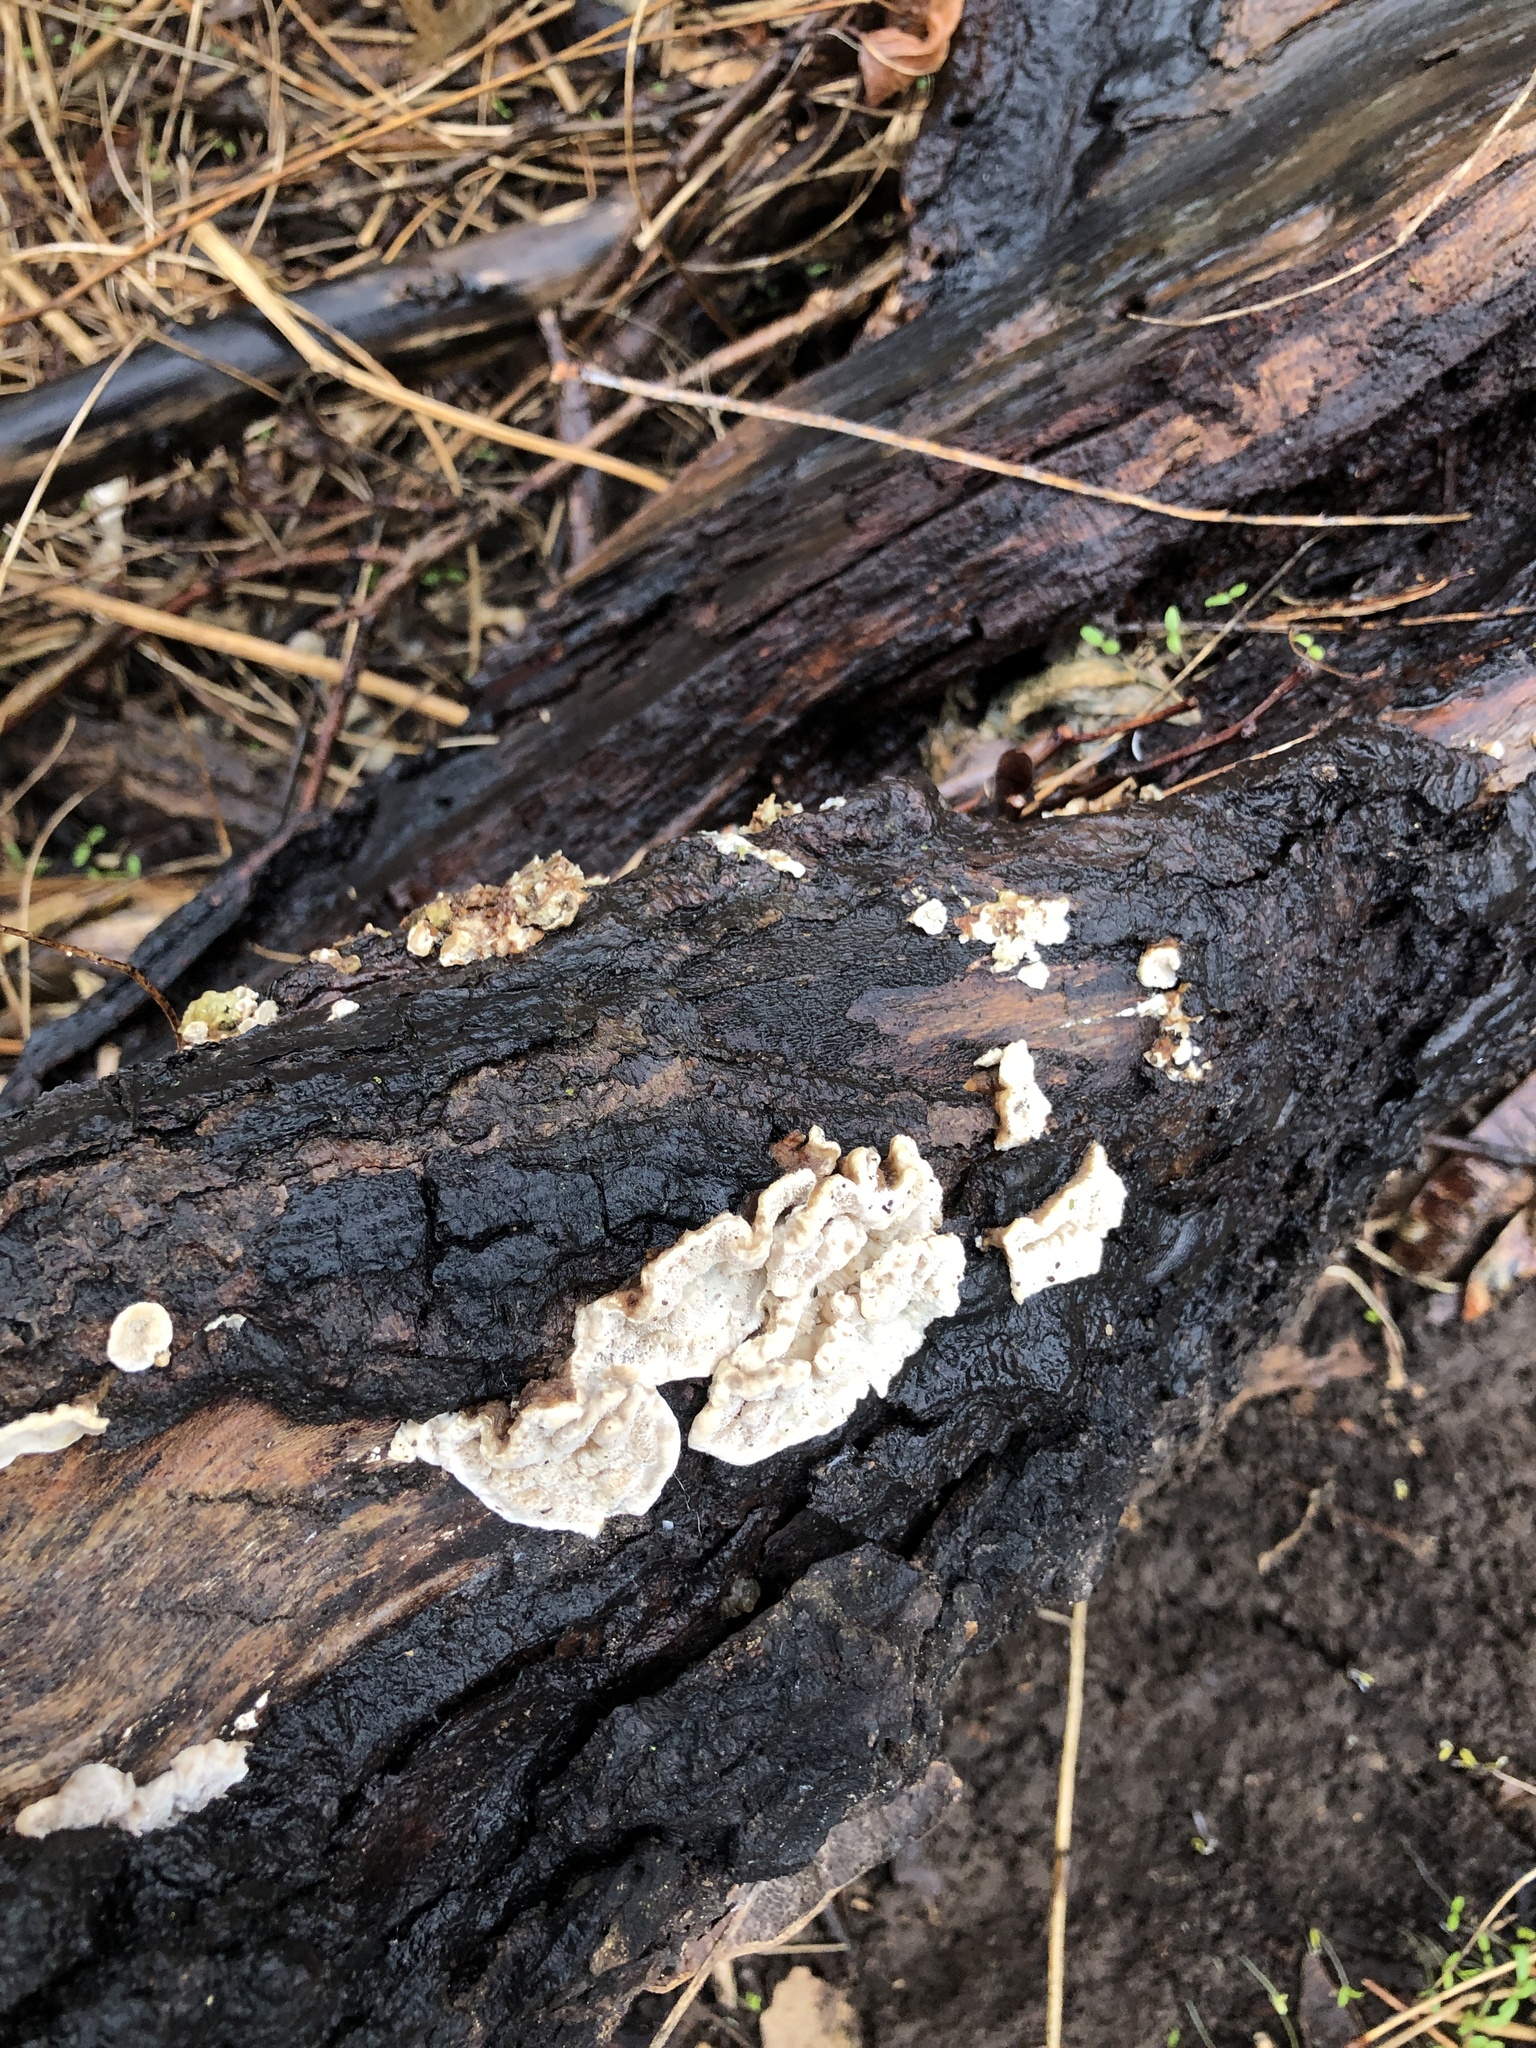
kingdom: Fungi
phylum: Basidiomycota
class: Agaricomycetes
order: Polyporales
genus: Fuscopostia
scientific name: Fuscopostia fragilis
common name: Brown-staining cheese polypore
